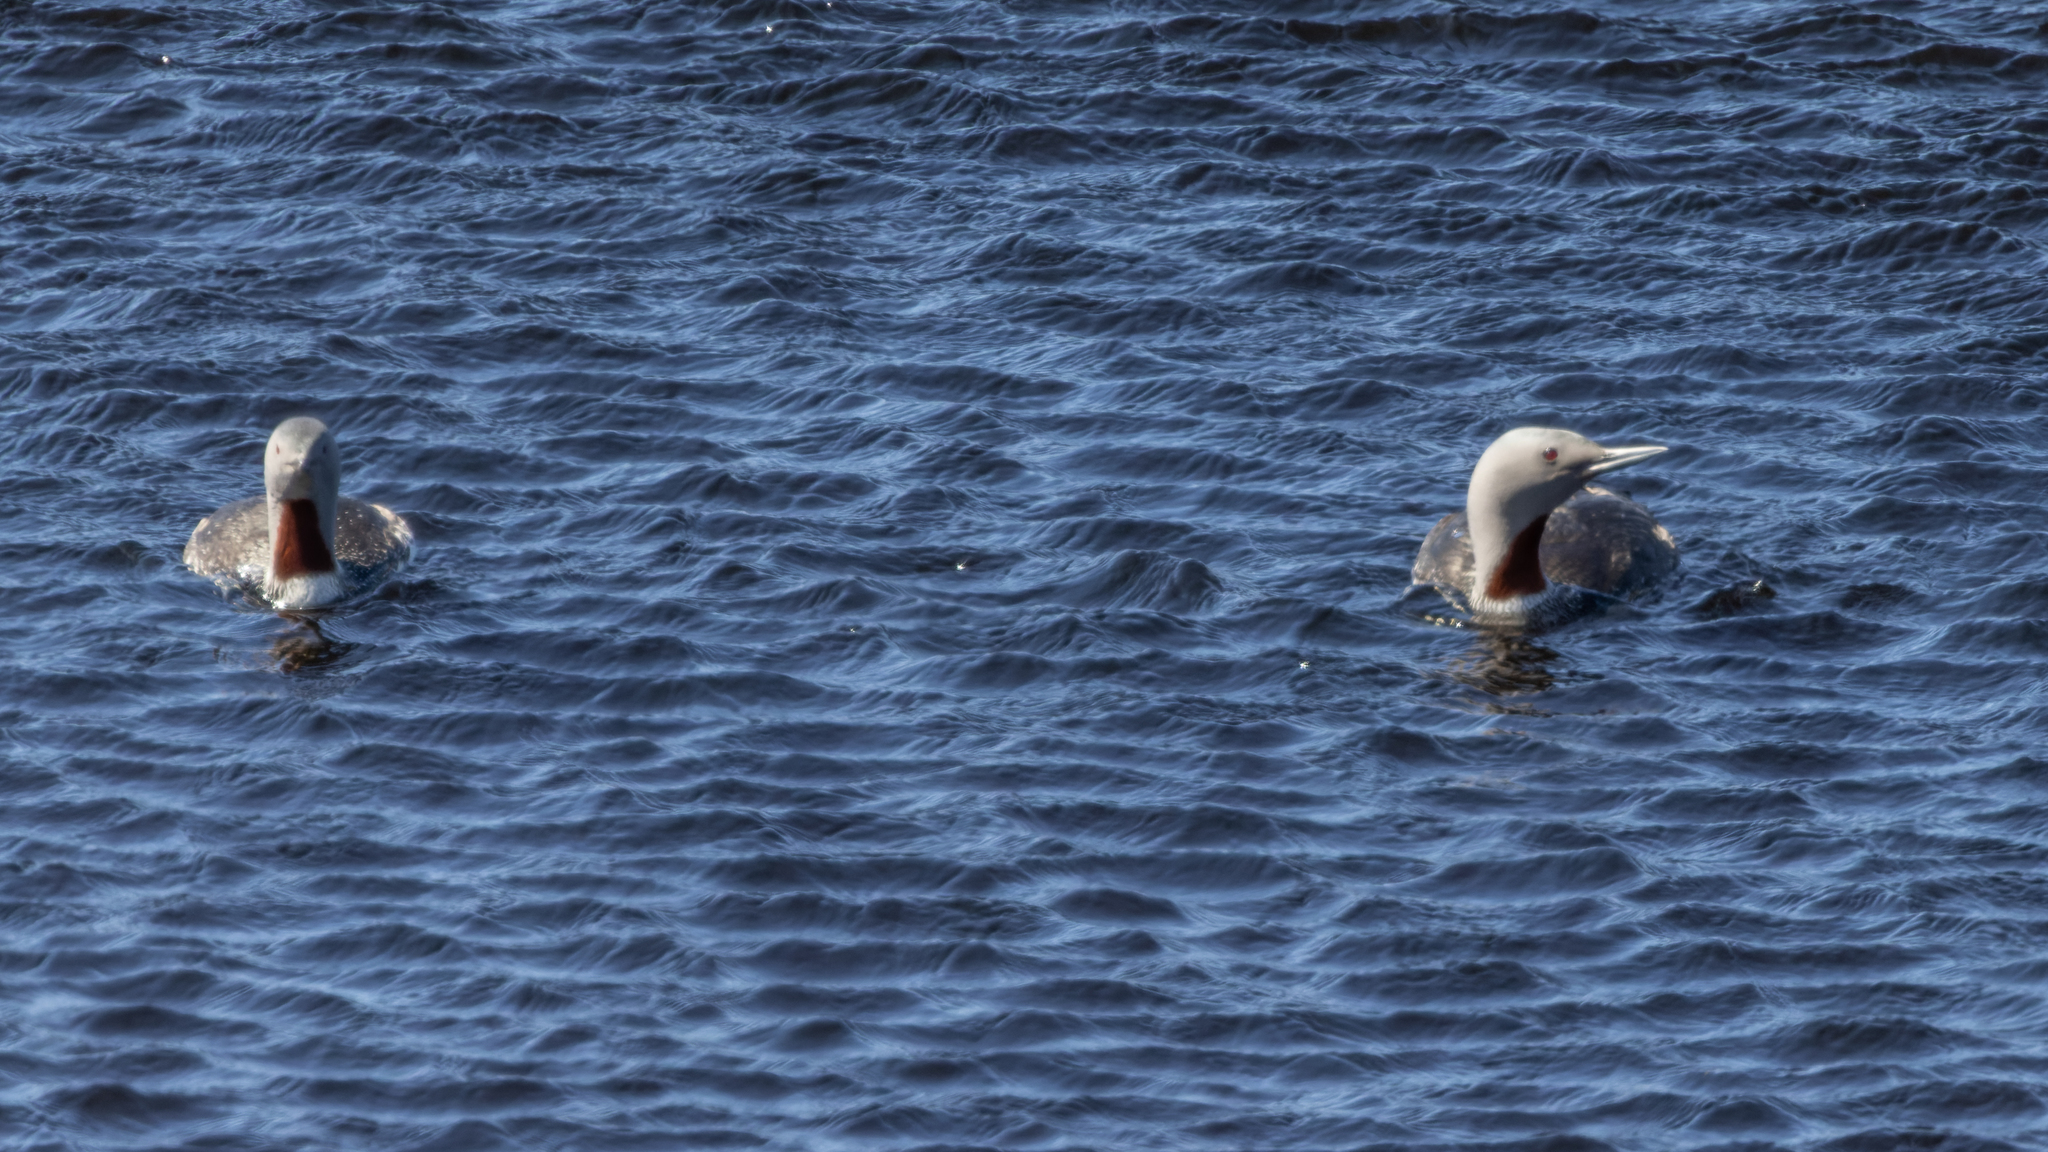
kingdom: Animalia
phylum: Chordata
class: Aves
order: Gaviiformes
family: Gaviidae
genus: Gavia
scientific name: Gavia stellata
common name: Red-throated loon
